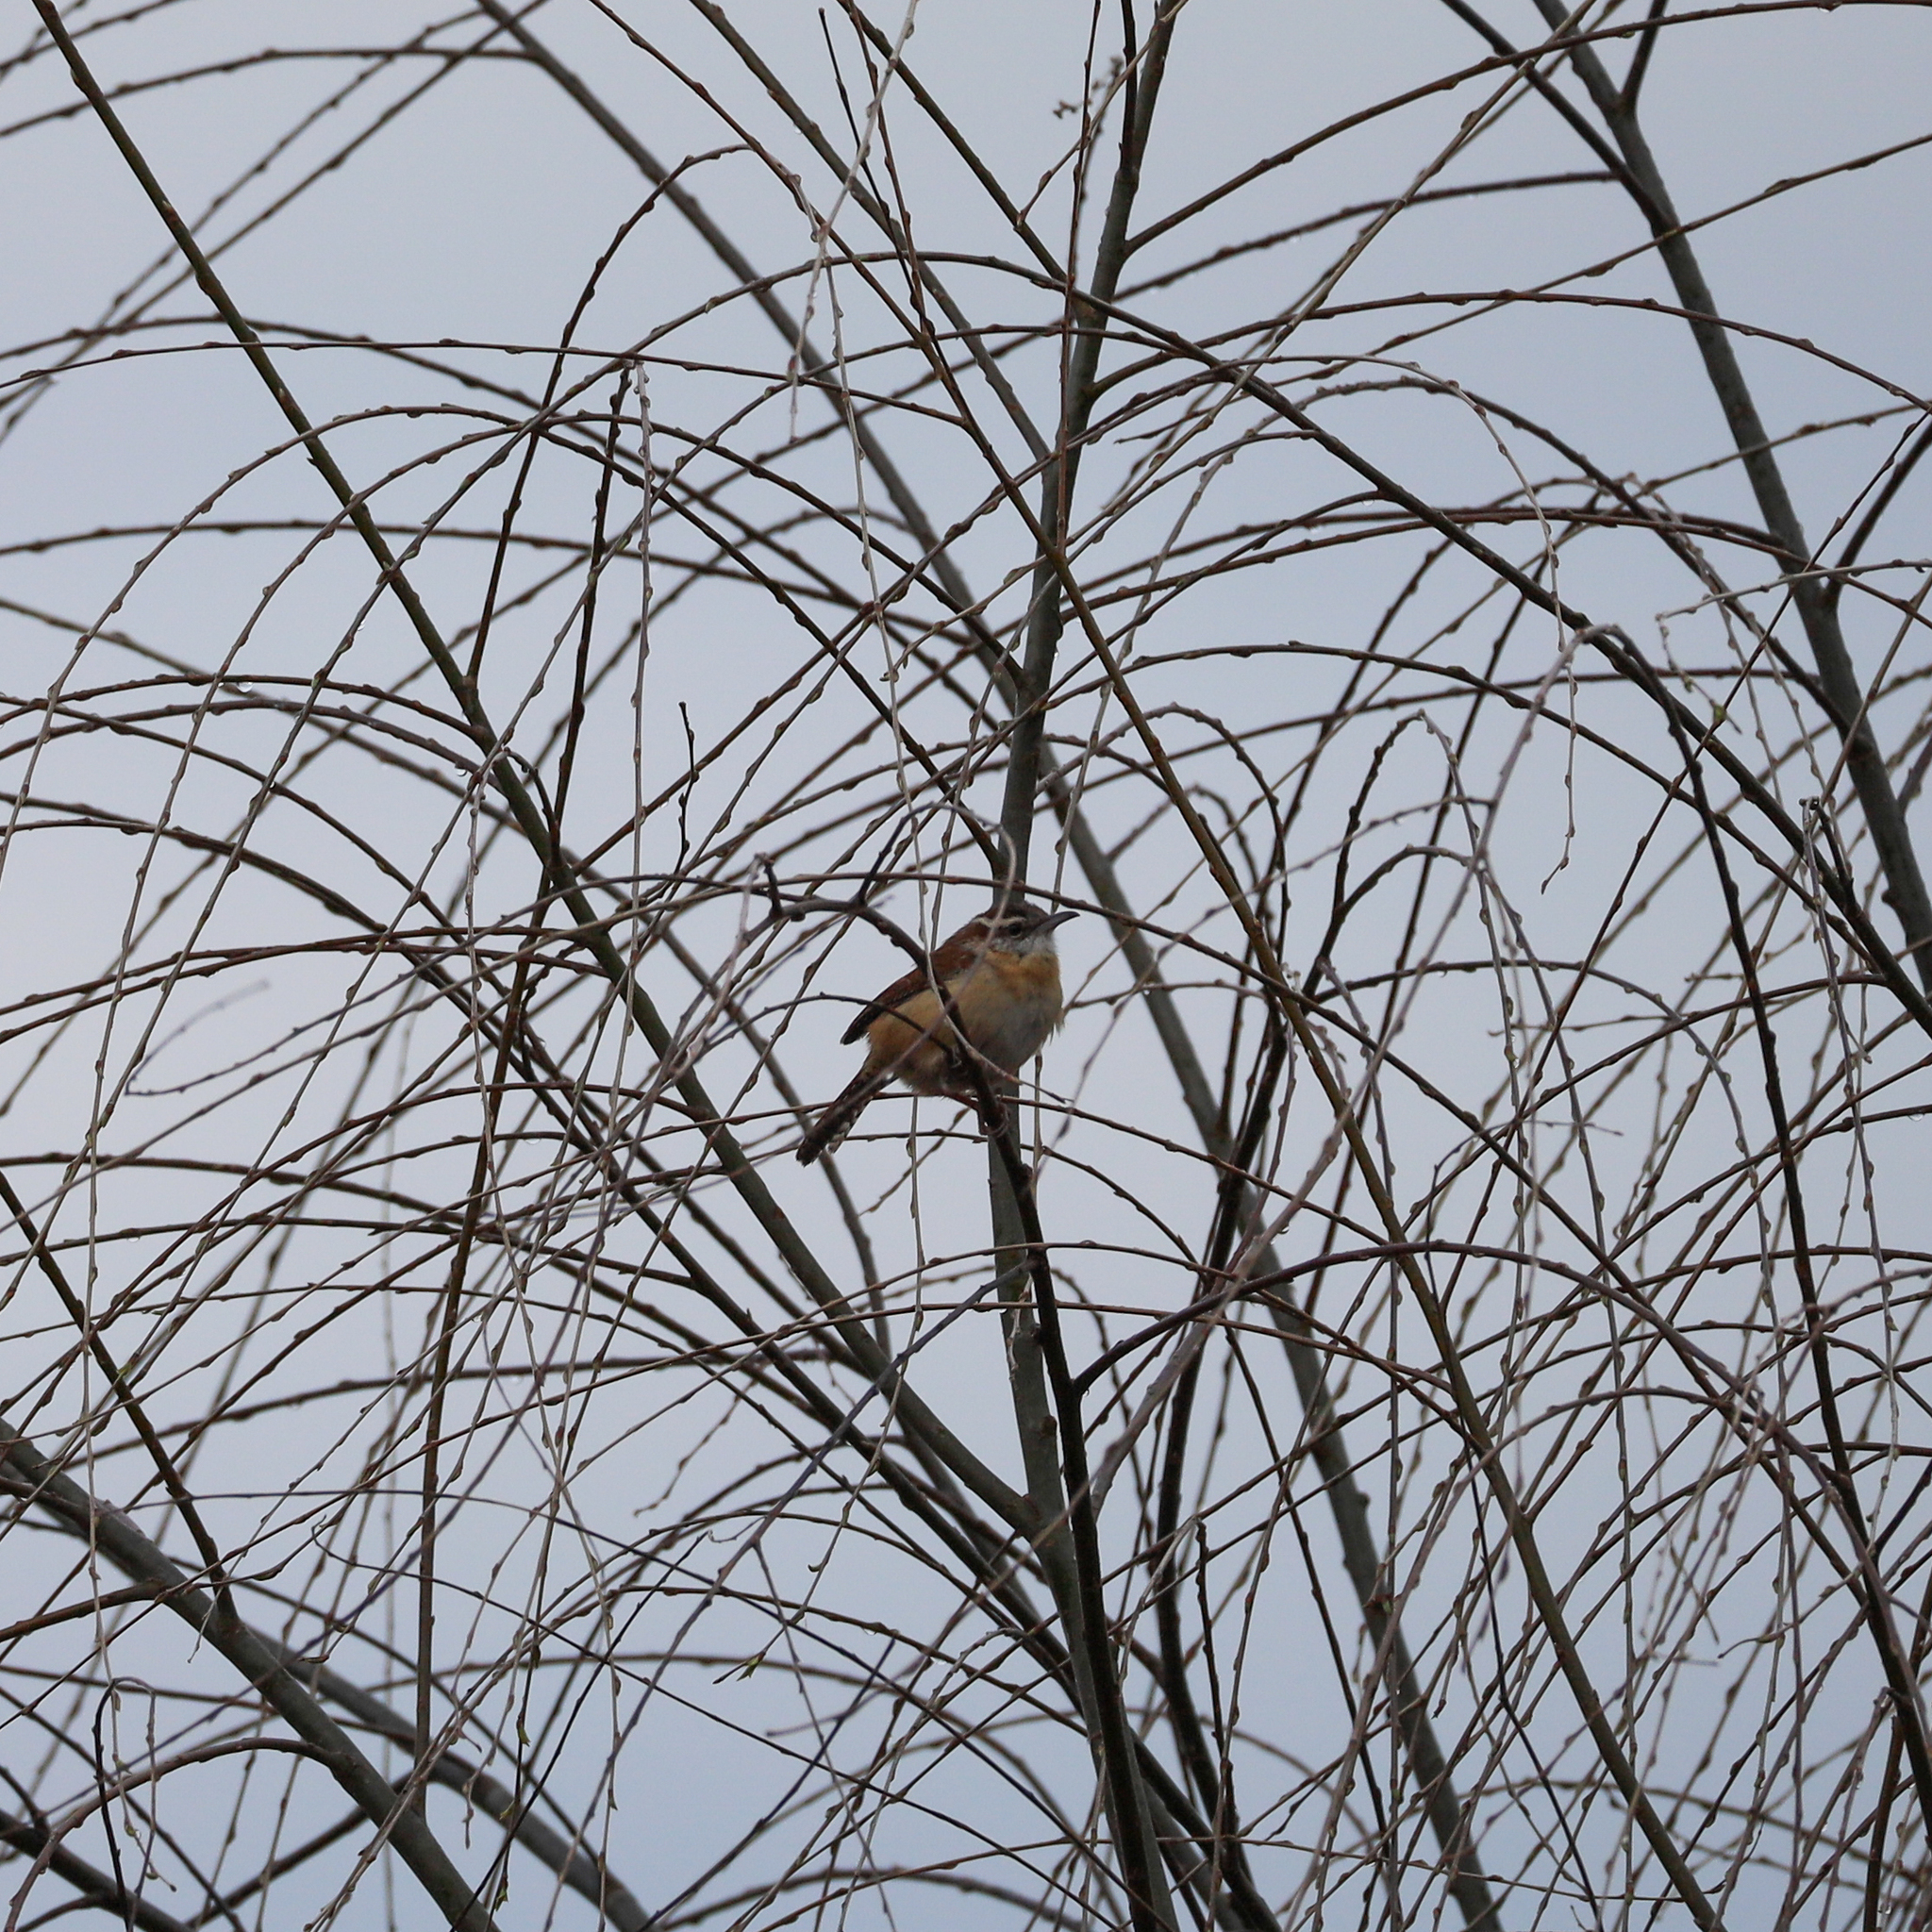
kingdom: Animalia
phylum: Chordata
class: Aves
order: Passeriformes
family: Troglodytidae
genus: Thryothorus
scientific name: Thryothorus ludovicianus
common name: Carolina wren
